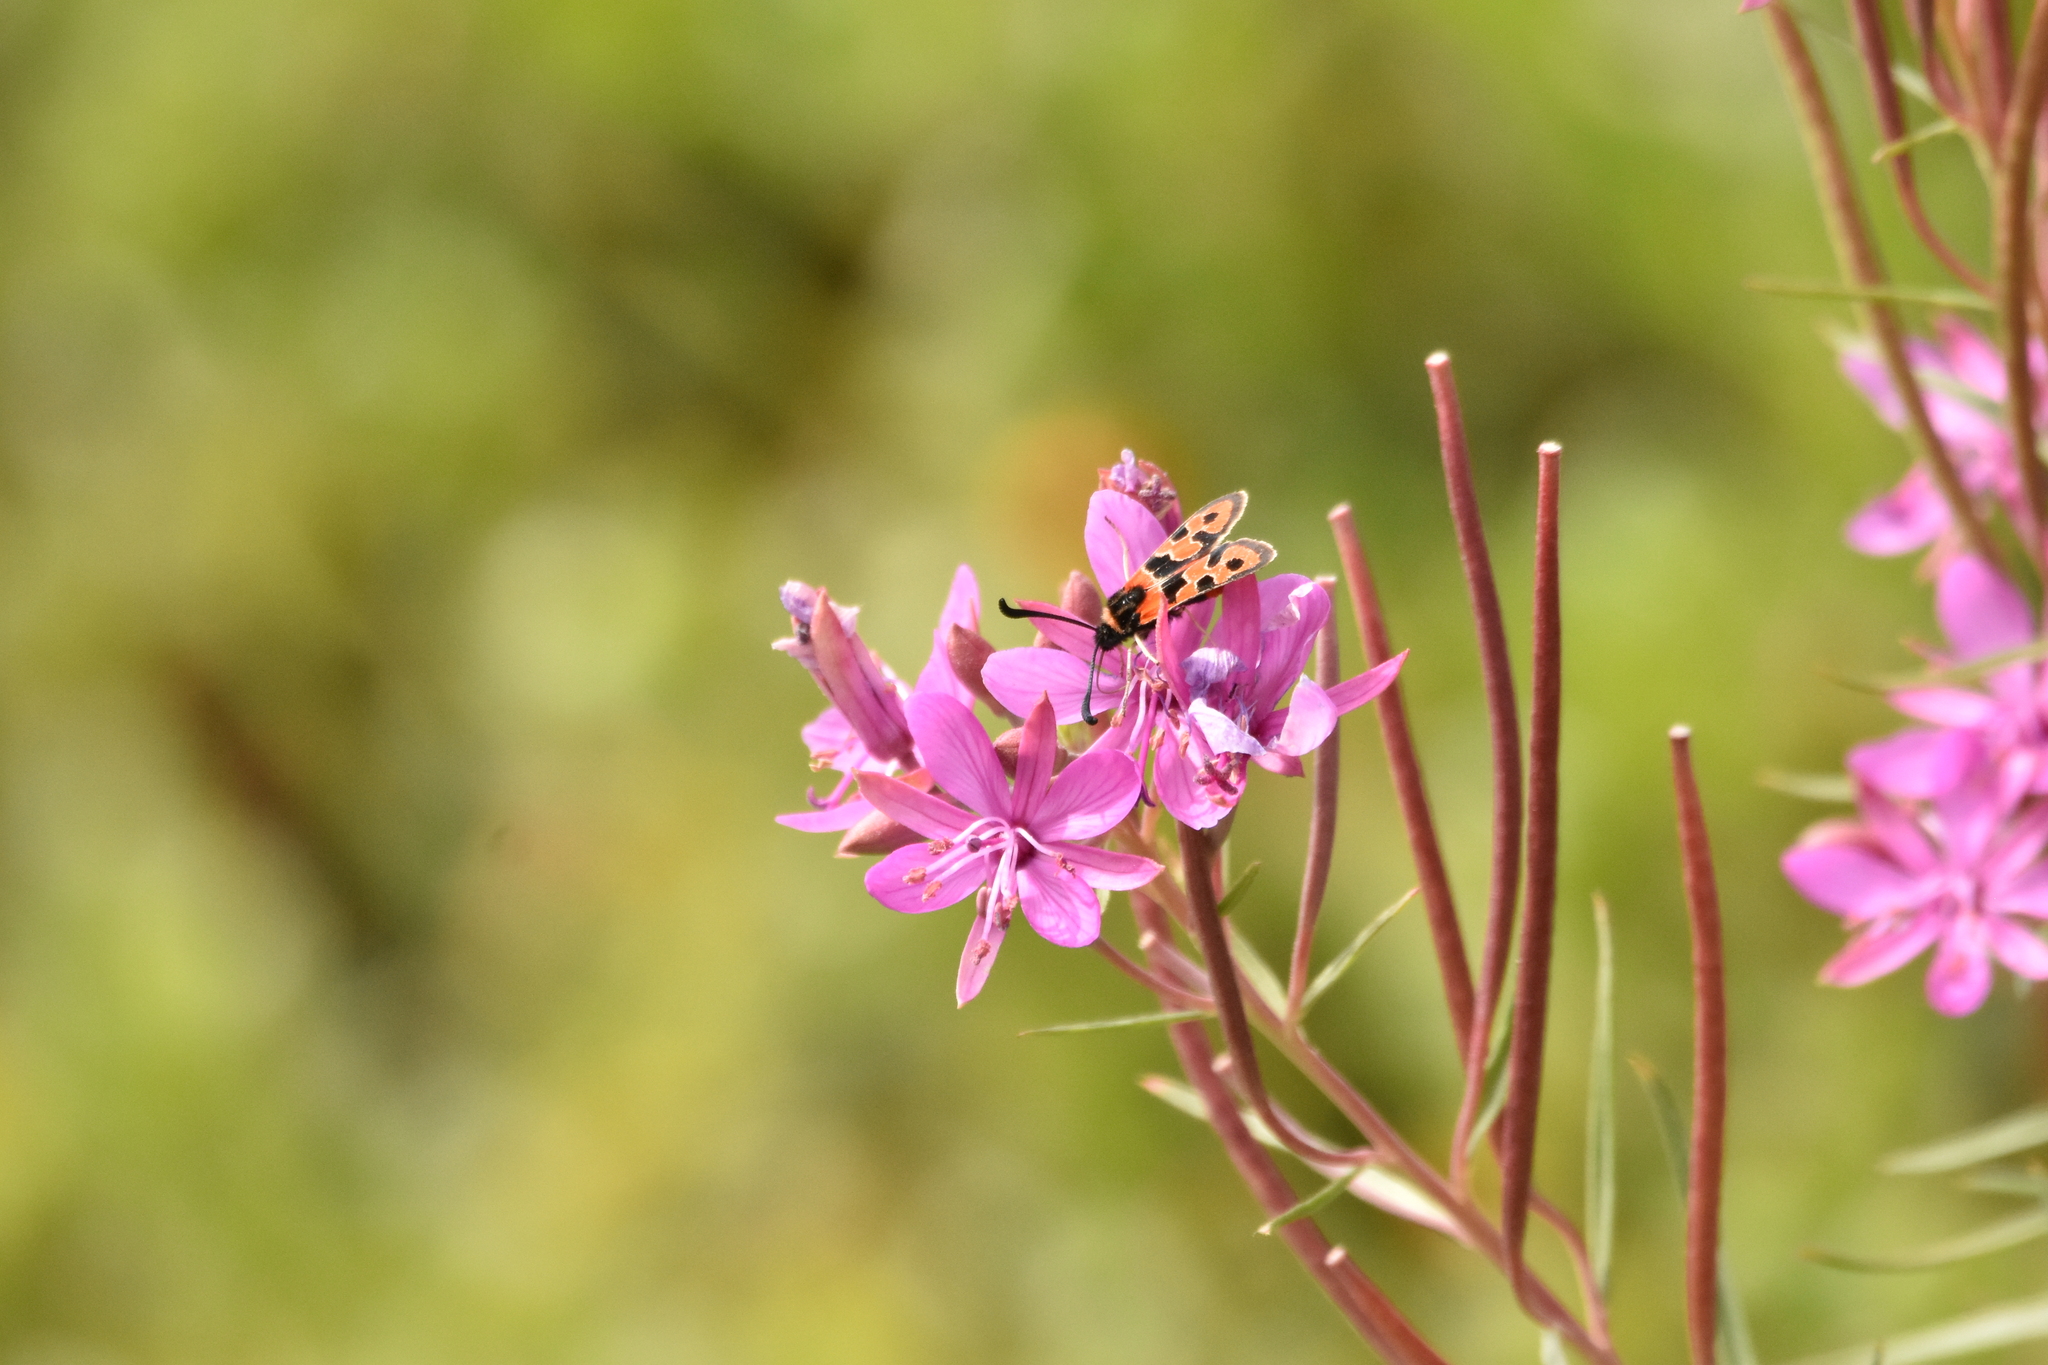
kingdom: Animalia
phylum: Arthropoda
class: Insecta
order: Lepidoptera
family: Zygaenidae
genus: Zygaena
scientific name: Zygaena fausta
